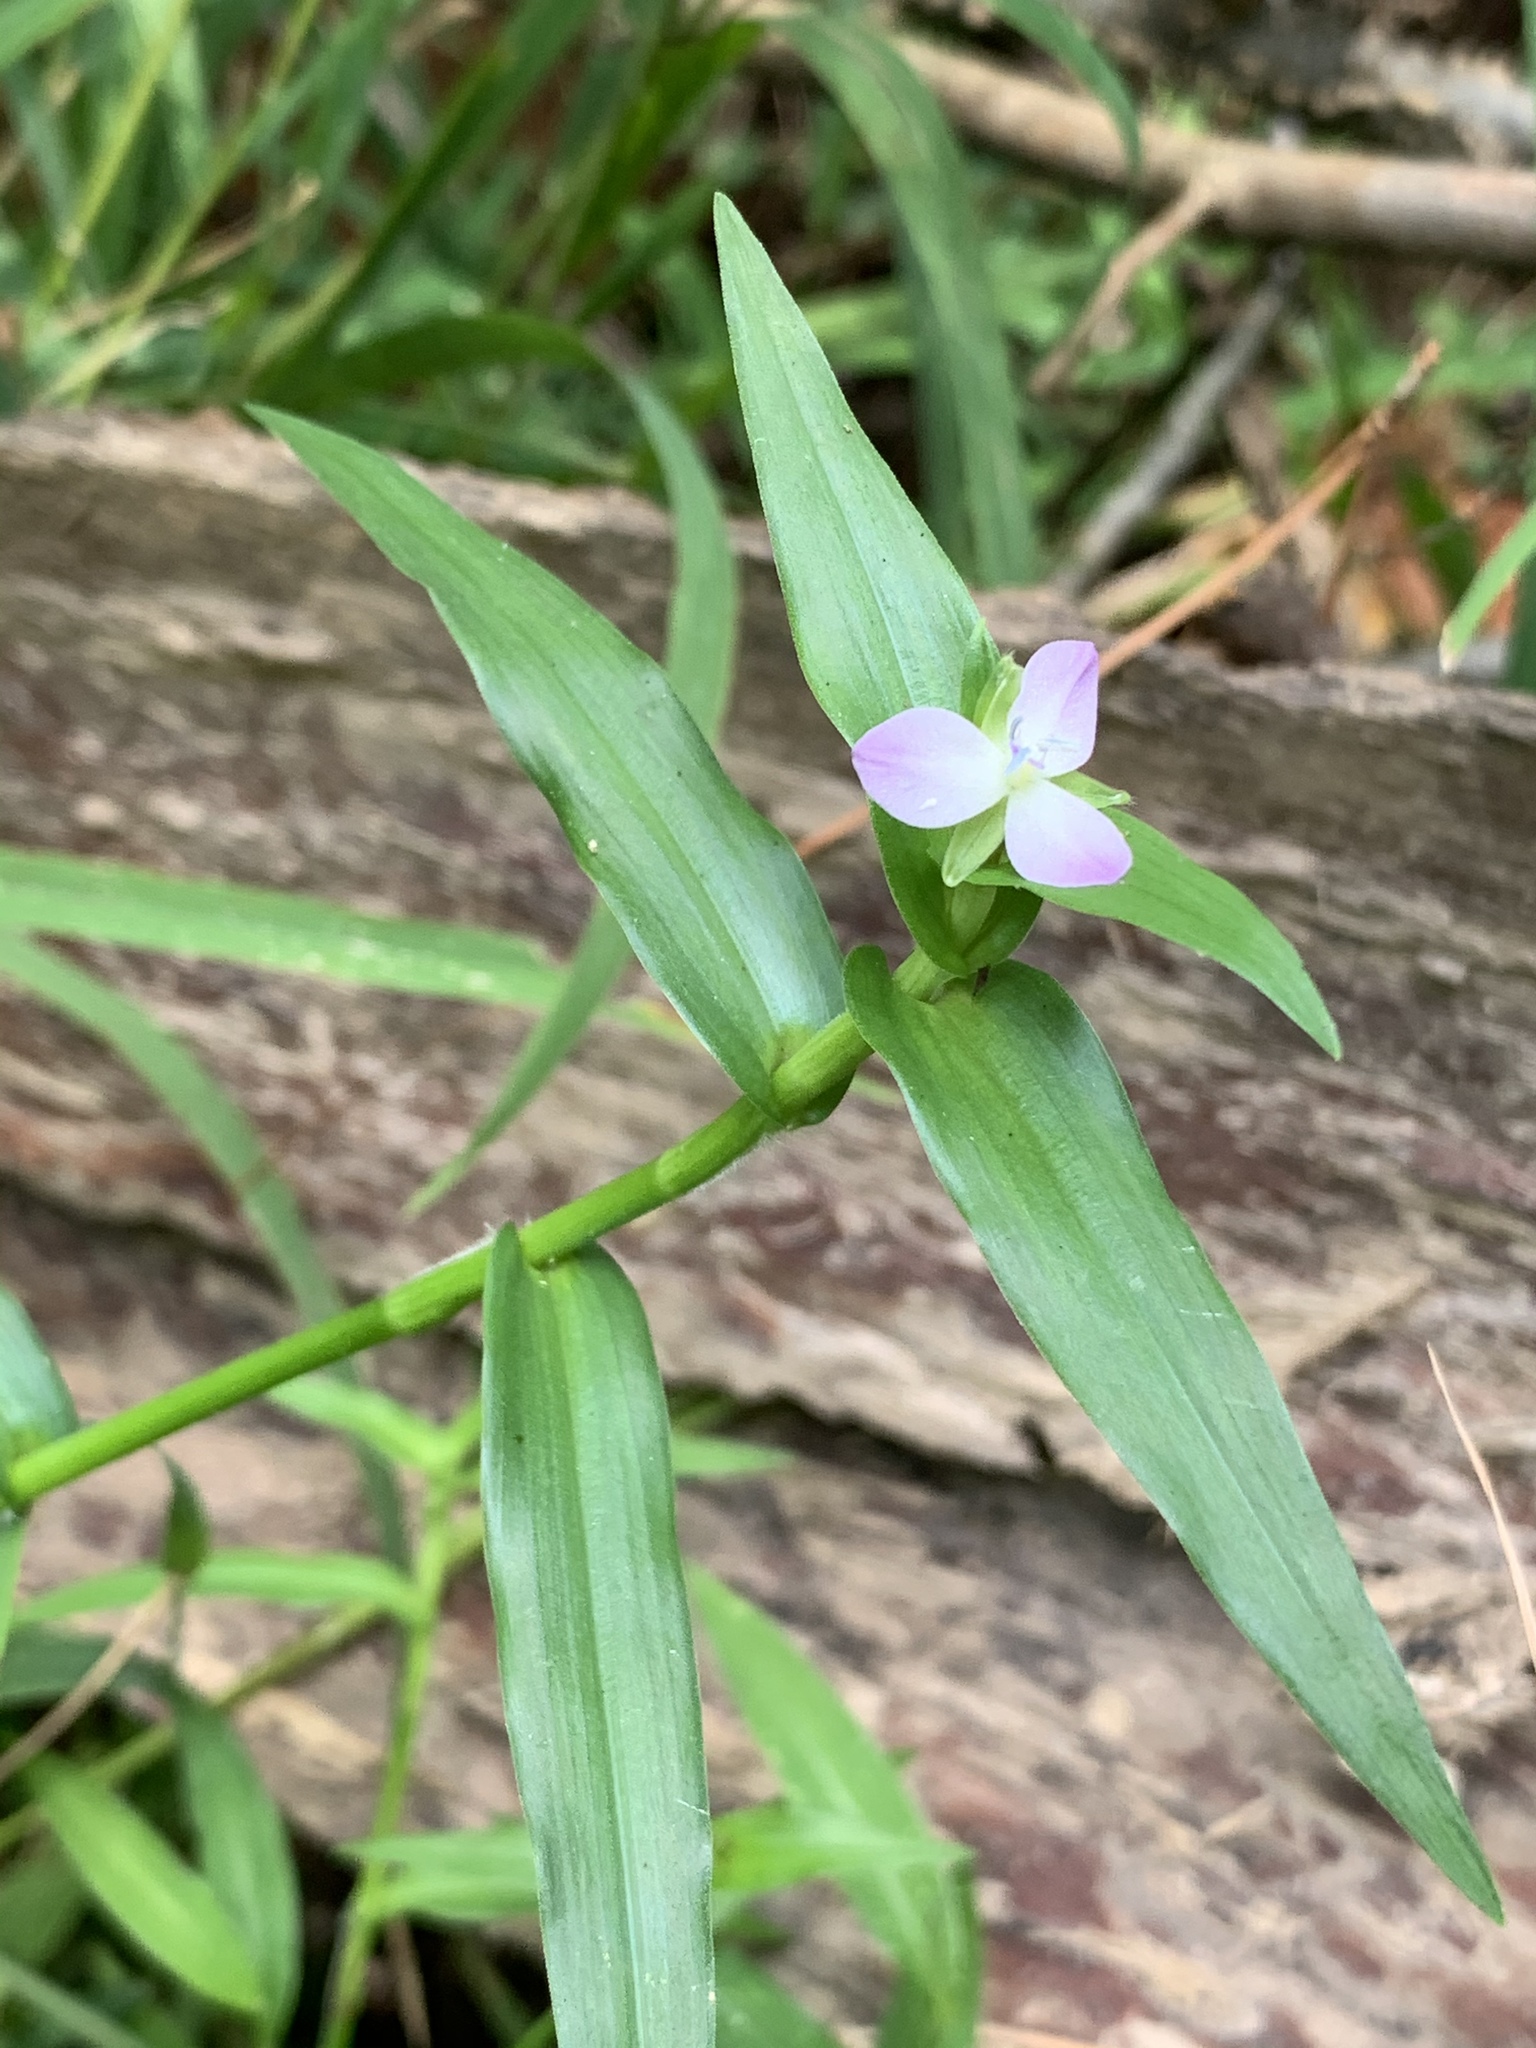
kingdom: Plantae
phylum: Tracheophyta
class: Liliopsida
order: Commelinales
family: Commelinaceae
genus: Murdannia
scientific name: Murdannia keisak
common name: Wartremoving herb
